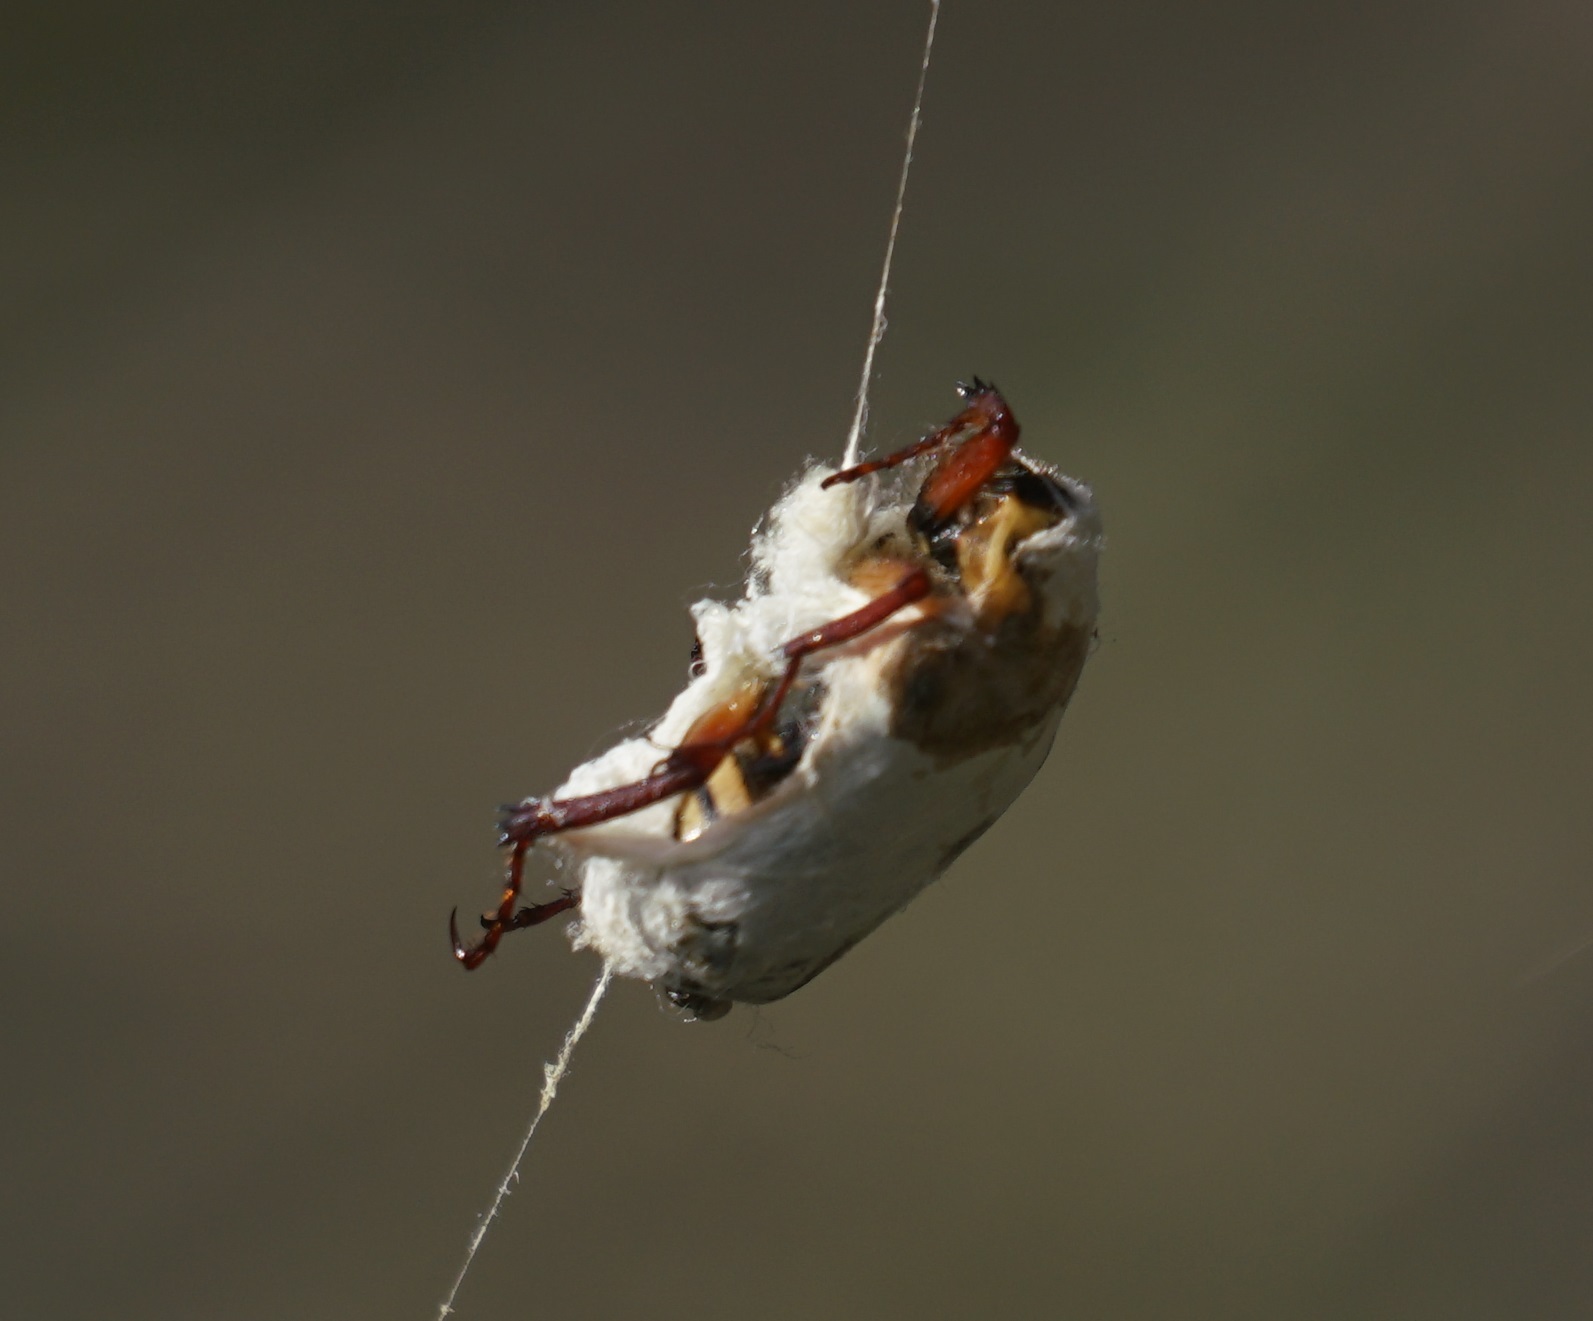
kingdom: Animalia
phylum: Arthropoda
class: Insecta
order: Coleoptera
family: Scarabaeidae
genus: Neorrhina
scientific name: Neorrhina punctatum
